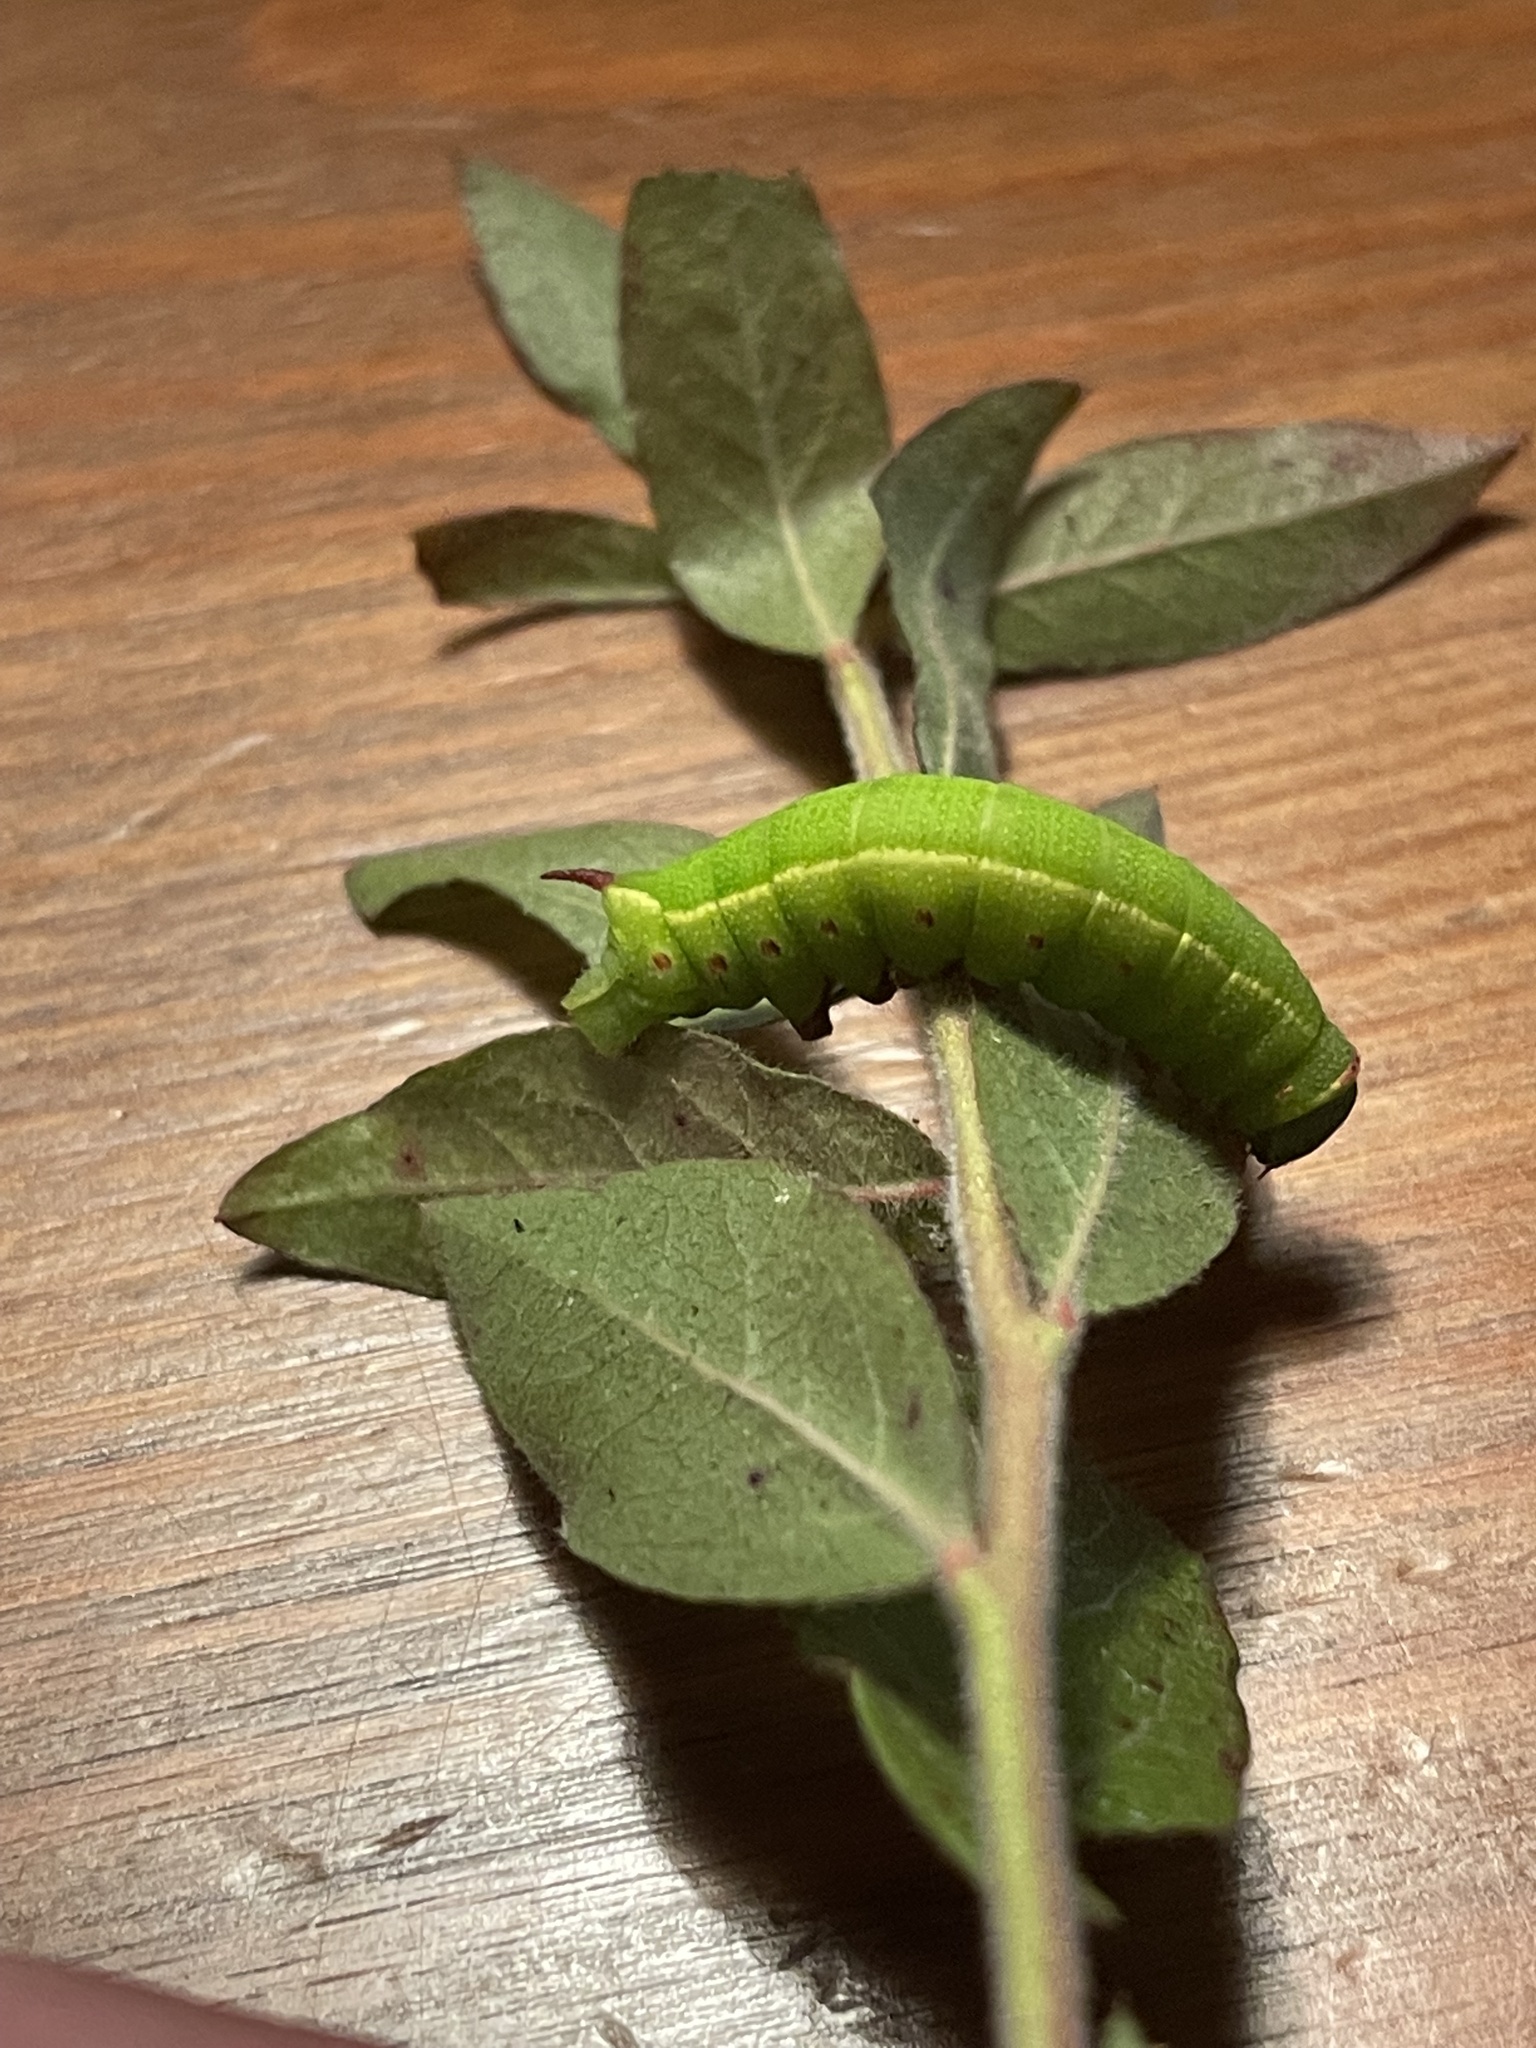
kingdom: Animalia
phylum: Arthropoda
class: Insecta
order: Lepidoptera
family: Sphingidae
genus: Hemaris
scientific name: Hemaris gracilis
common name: Graceful clearwing
